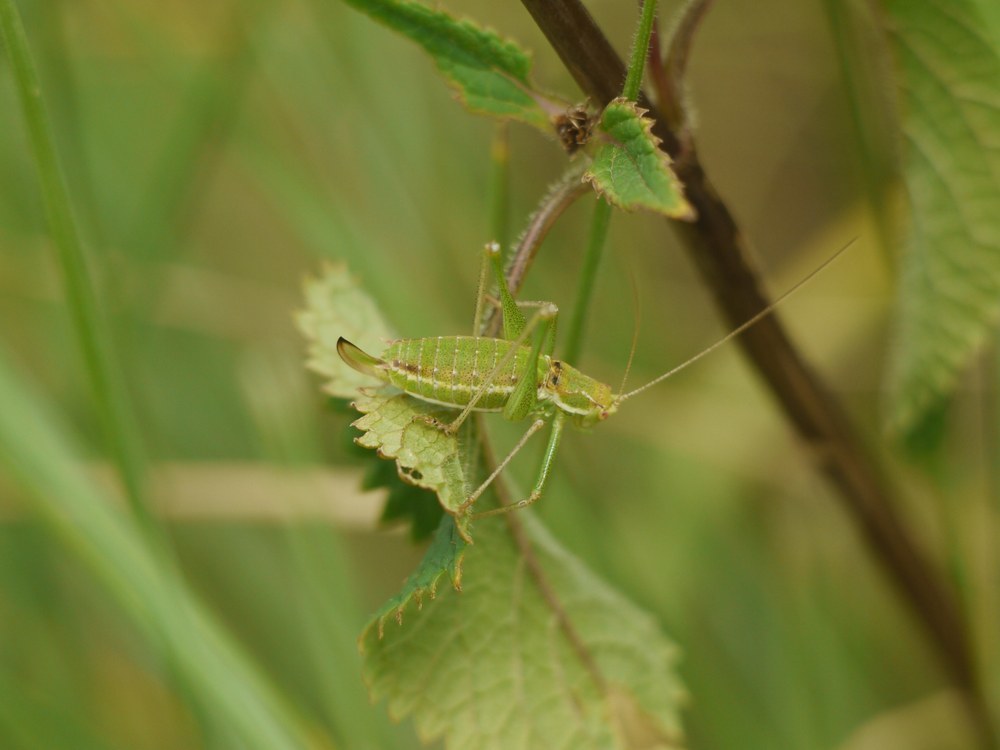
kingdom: Animalia
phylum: Arthropoda
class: Insecta
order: Orthoptera
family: Tettigoniidae
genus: Leptophyes
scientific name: Leptophyes albovittata
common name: Striped bush-cricket
